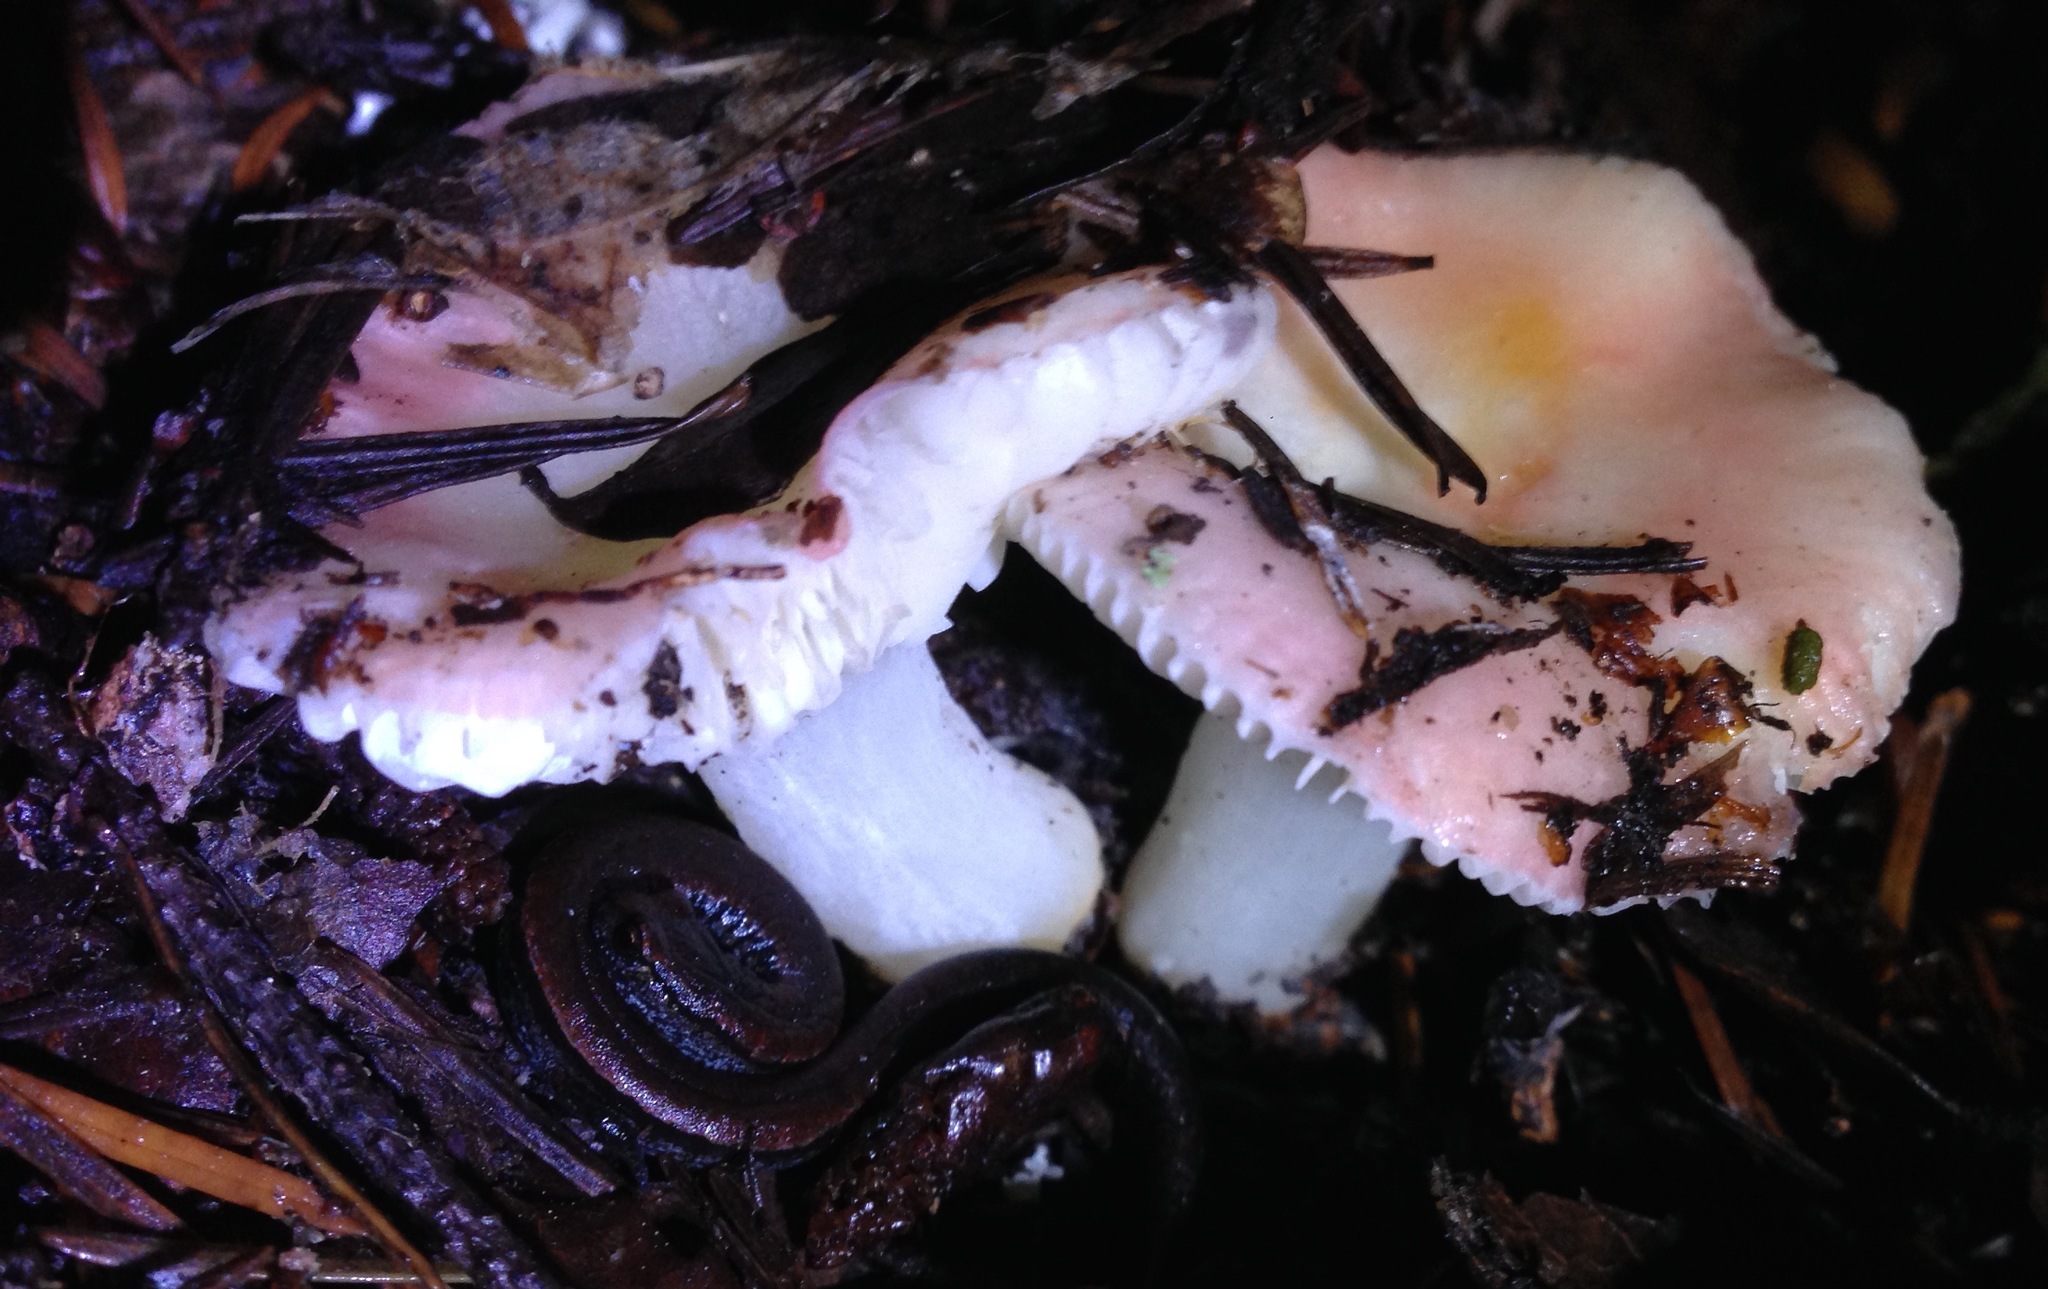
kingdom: Fungi
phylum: Basidiomycota
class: Agaricomycetes
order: Russulales
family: Russulaceae
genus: Russula
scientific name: Russula cremoricolor
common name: Winter russula
